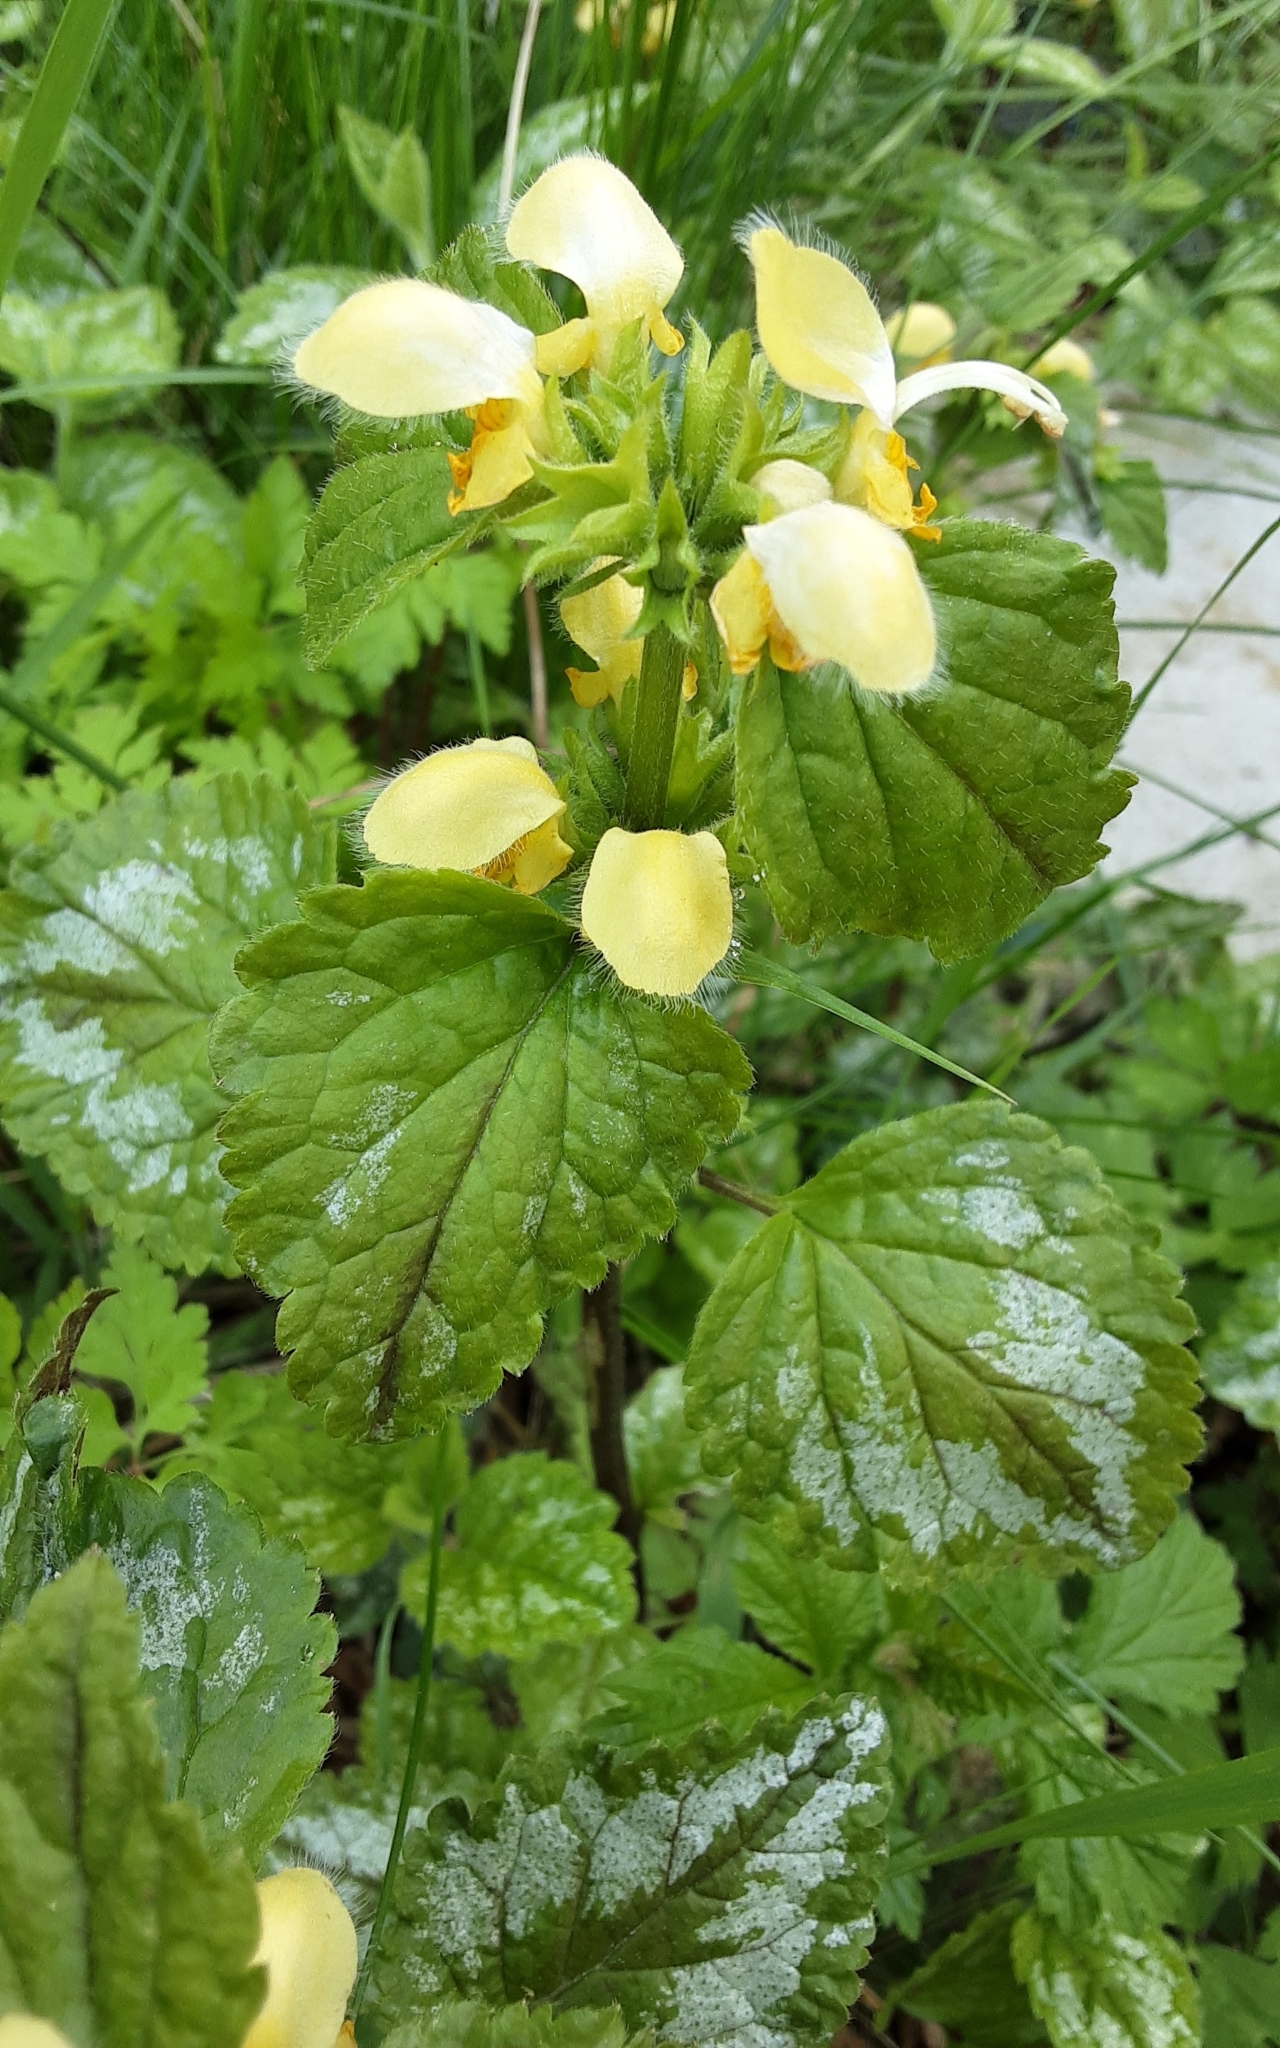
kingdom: Plantae
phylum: Tracheophyta
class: Magnoliopsida
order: Lamiales
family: Lamiaceae
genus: Lamium
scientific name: Lamium galeobdolon
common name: Yellow archangel
